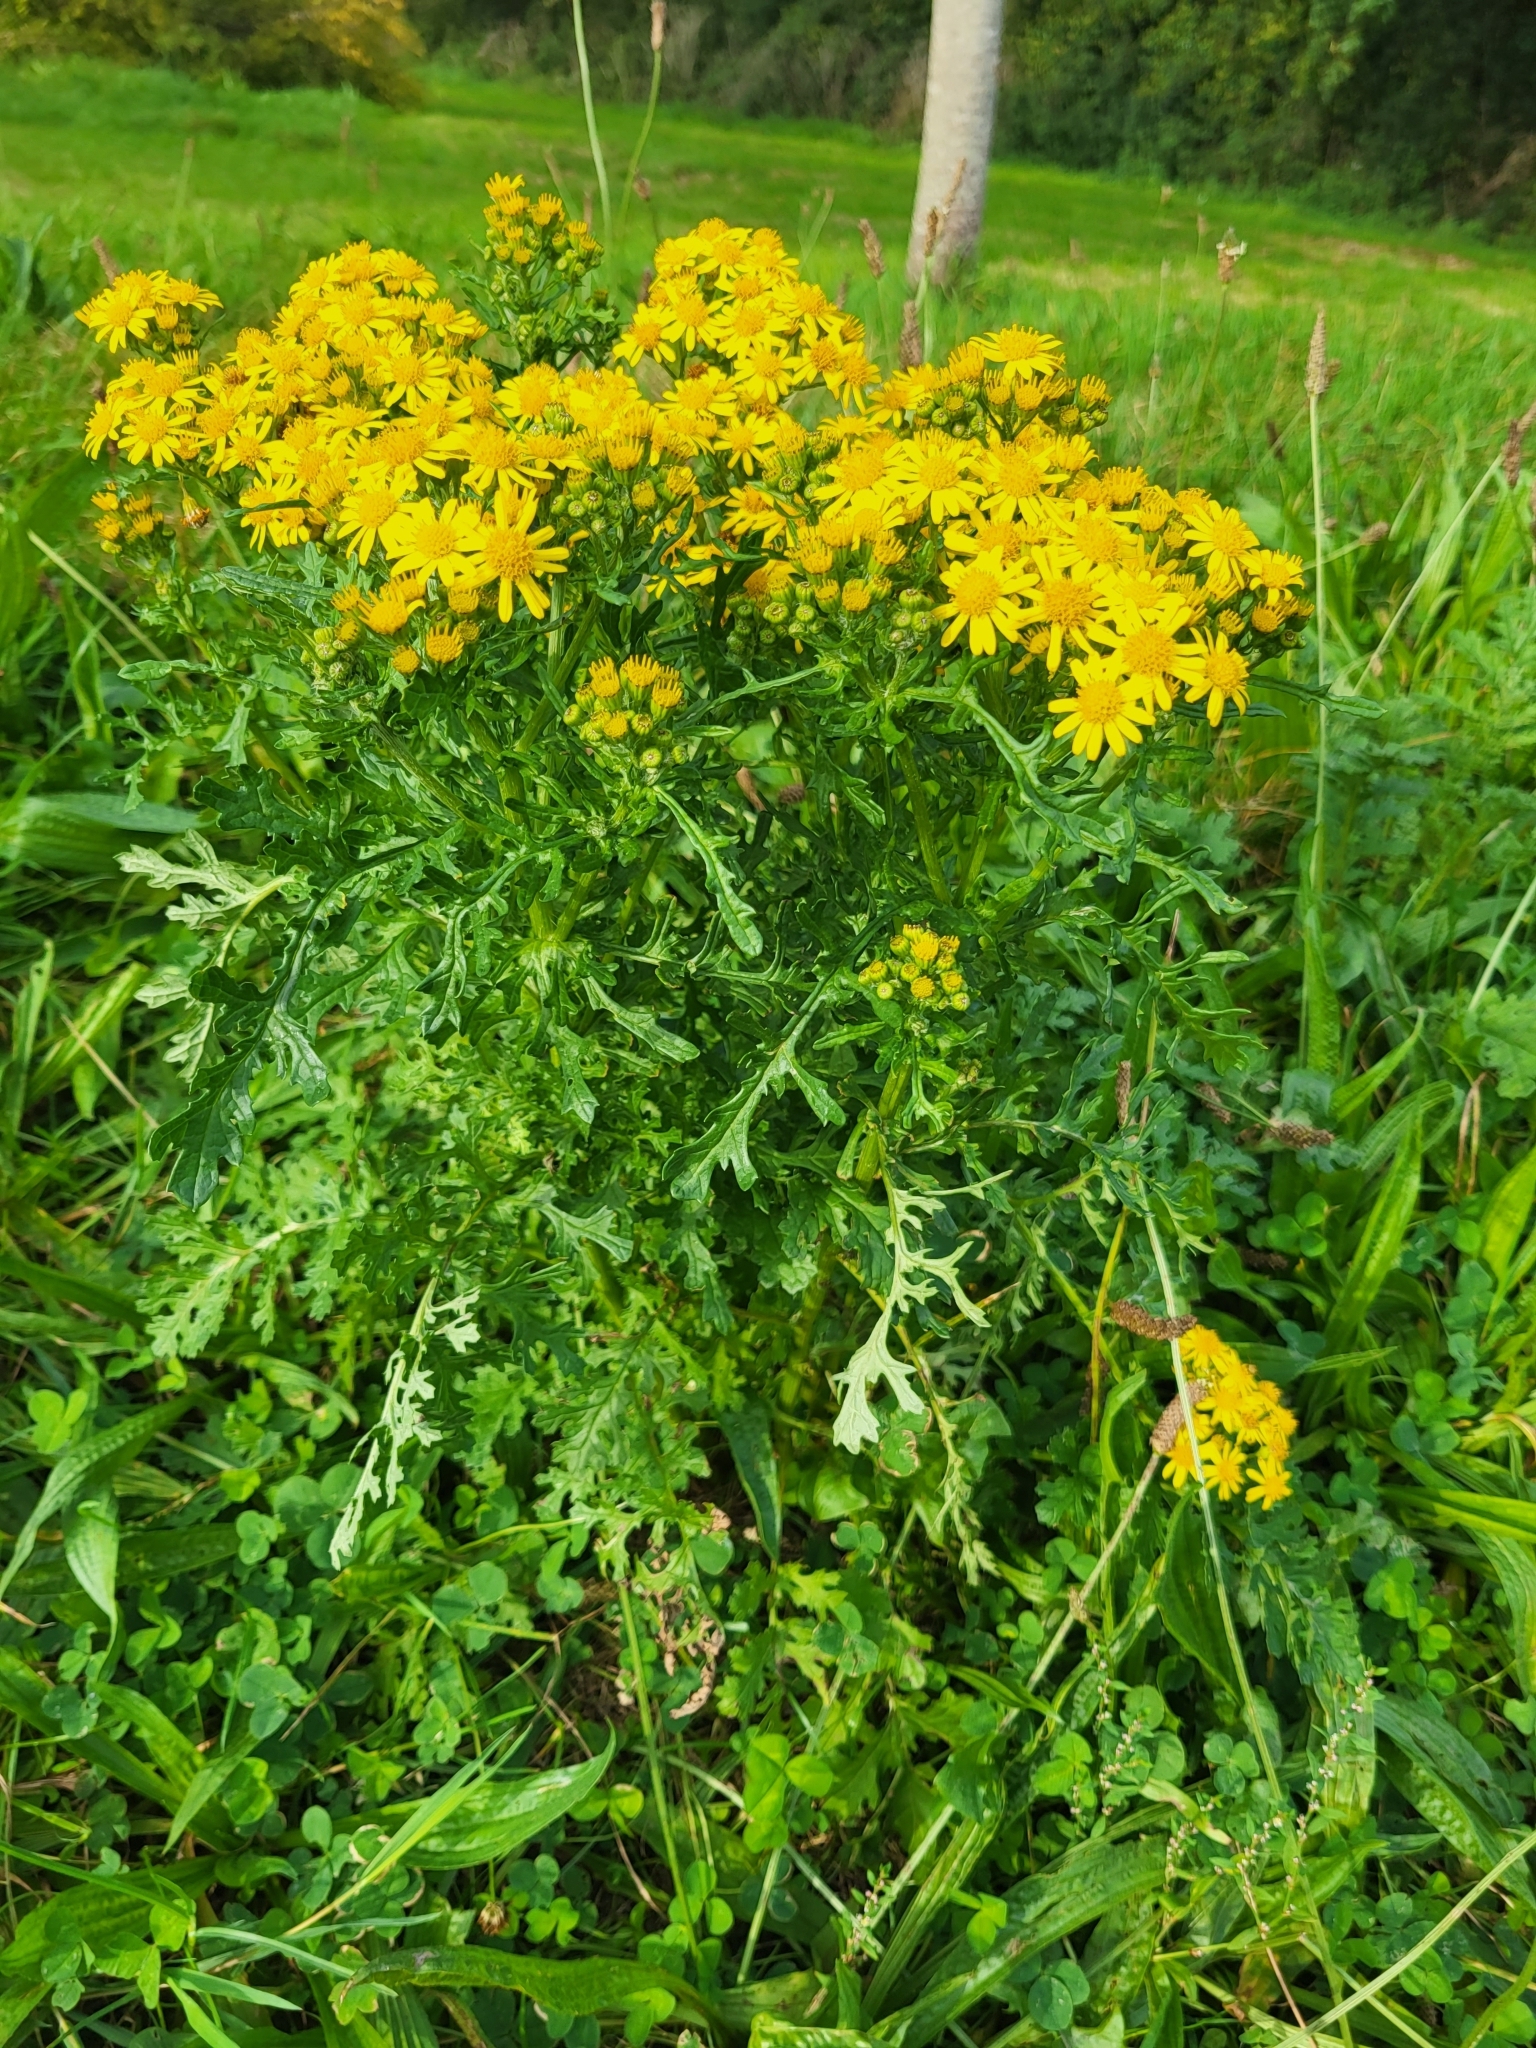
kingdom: Plantae
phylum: Tracheophyta
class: Magnoliopsida
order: Asterales
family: Asteraceae
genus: Jacobaea
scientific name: Jacobaea vulgaris
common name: Stinking willie
